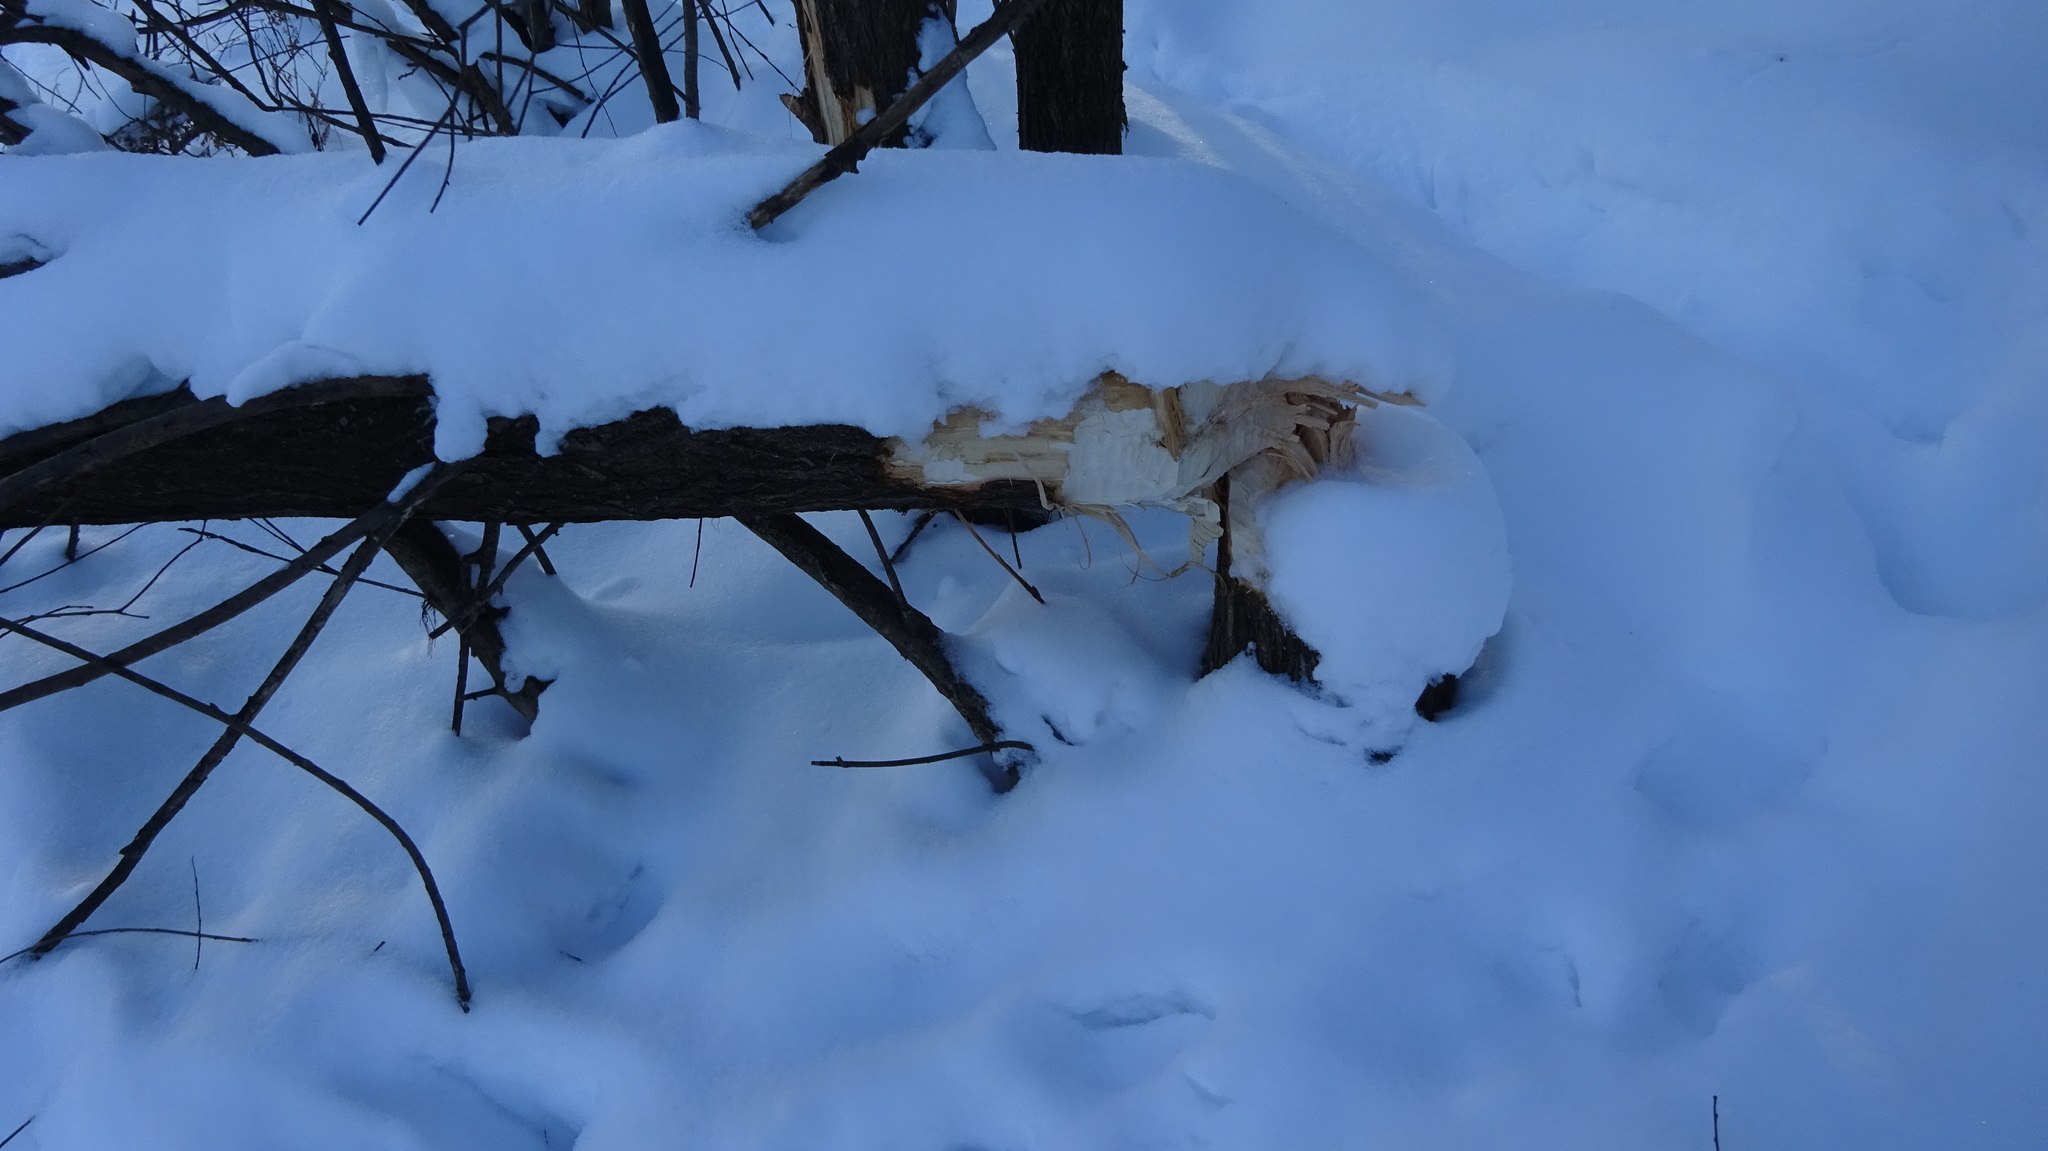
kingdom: Animalia
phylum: Chordata
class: Mammalia
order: Rodentia
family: Castoridae
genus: Castor
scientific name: Castor fiber
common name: Eurasian beaver
